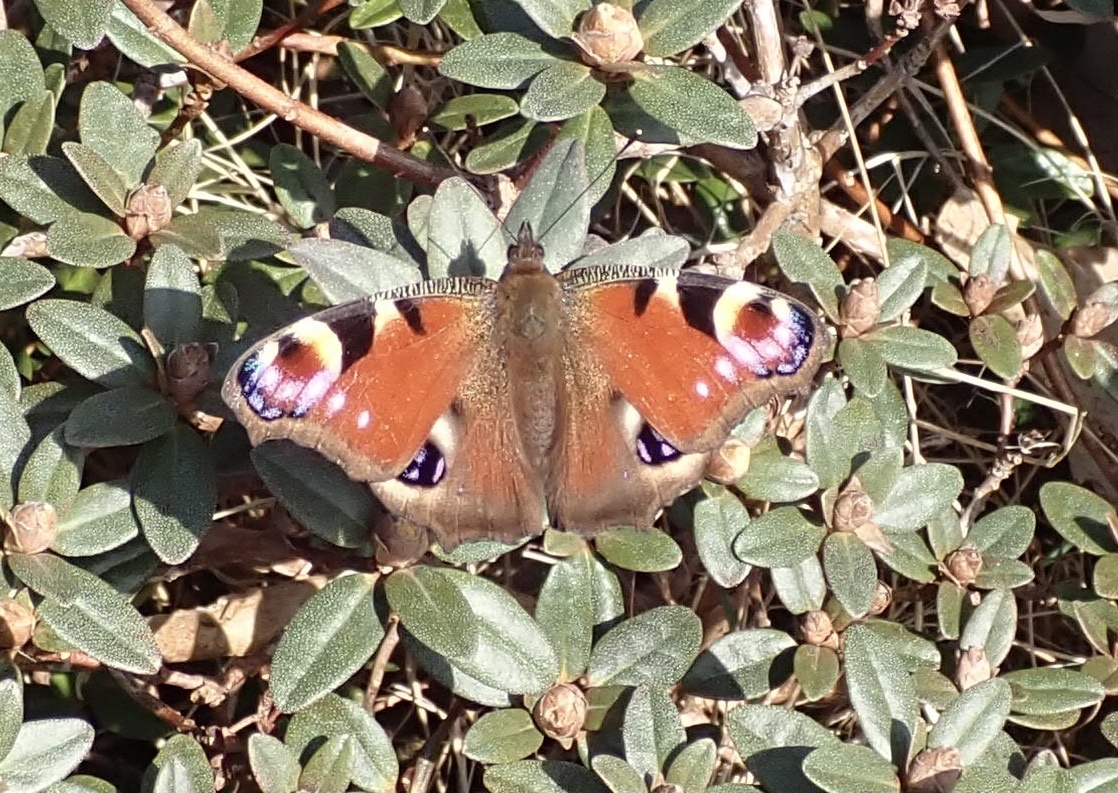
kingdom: Animalia
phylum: Arthropoda
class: Insecta
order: Lepidoptera
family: Nymphalidae
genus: Aglais
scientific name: Aglais io
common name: Peacock
